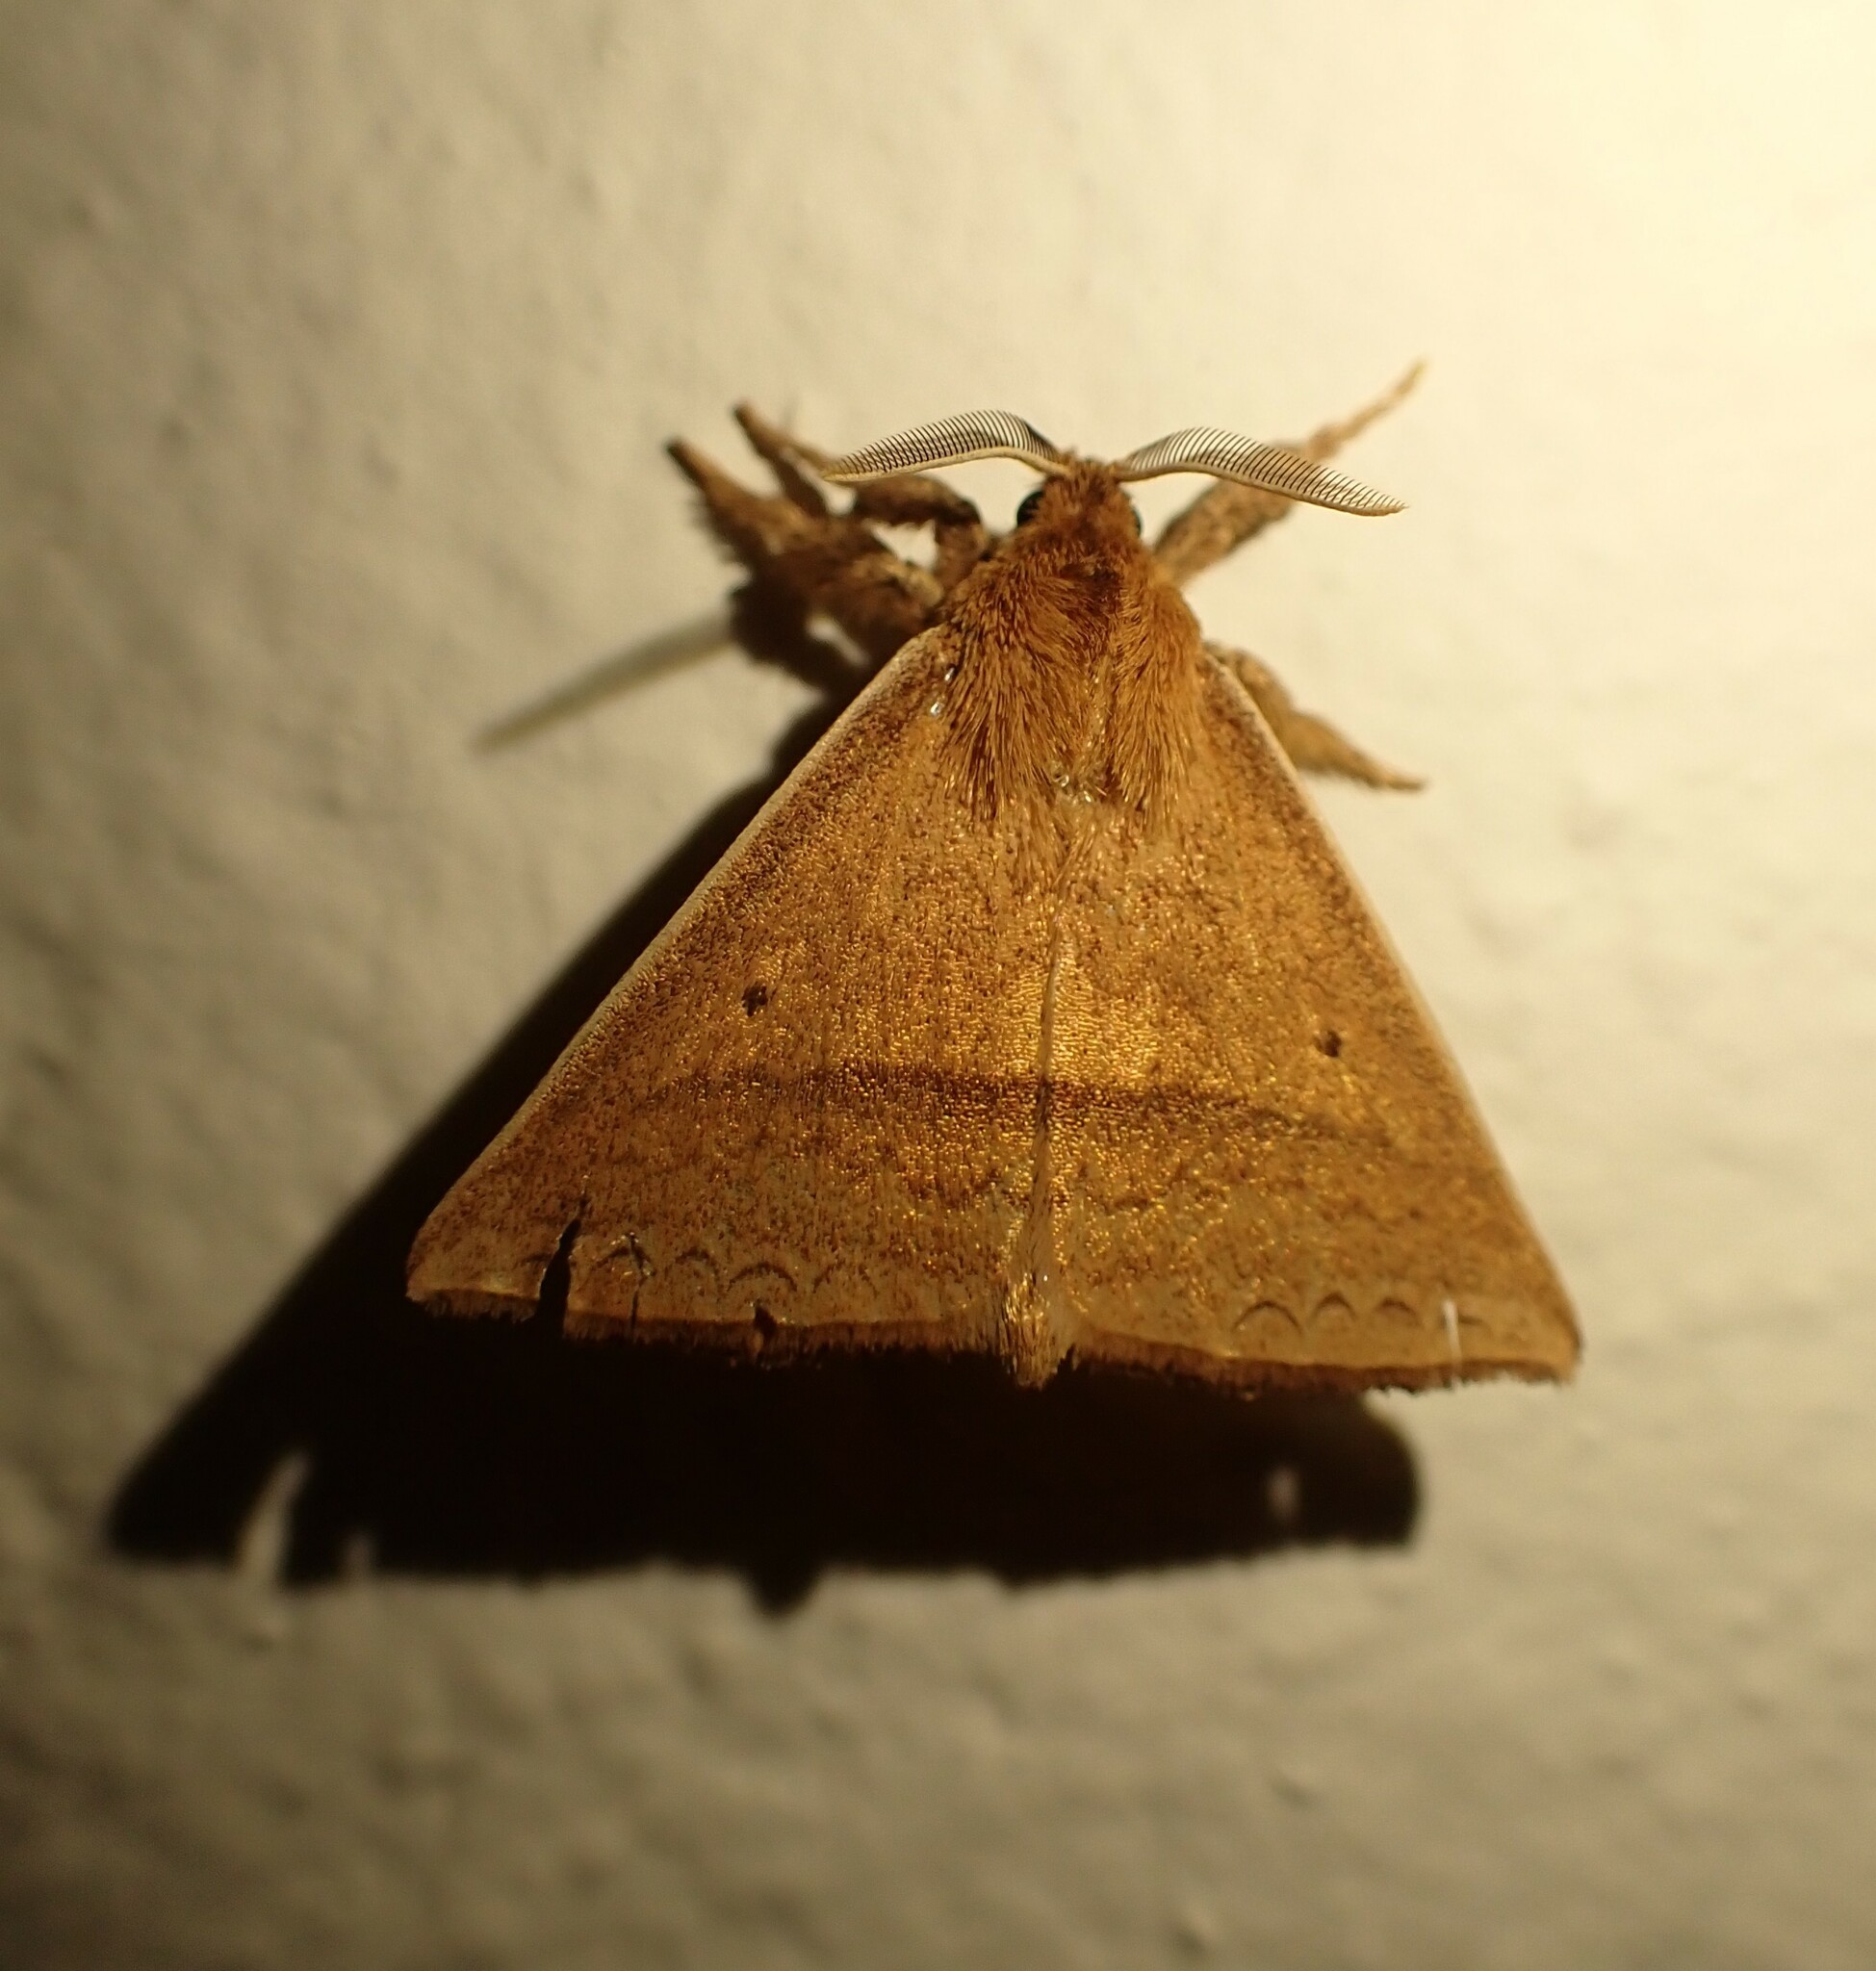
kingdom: Animalia
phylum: Arthropoda
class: Insecta
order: Lepidoptera
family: Apatelodidae
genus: Thelosia
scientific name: Thelosia jorgenseni
